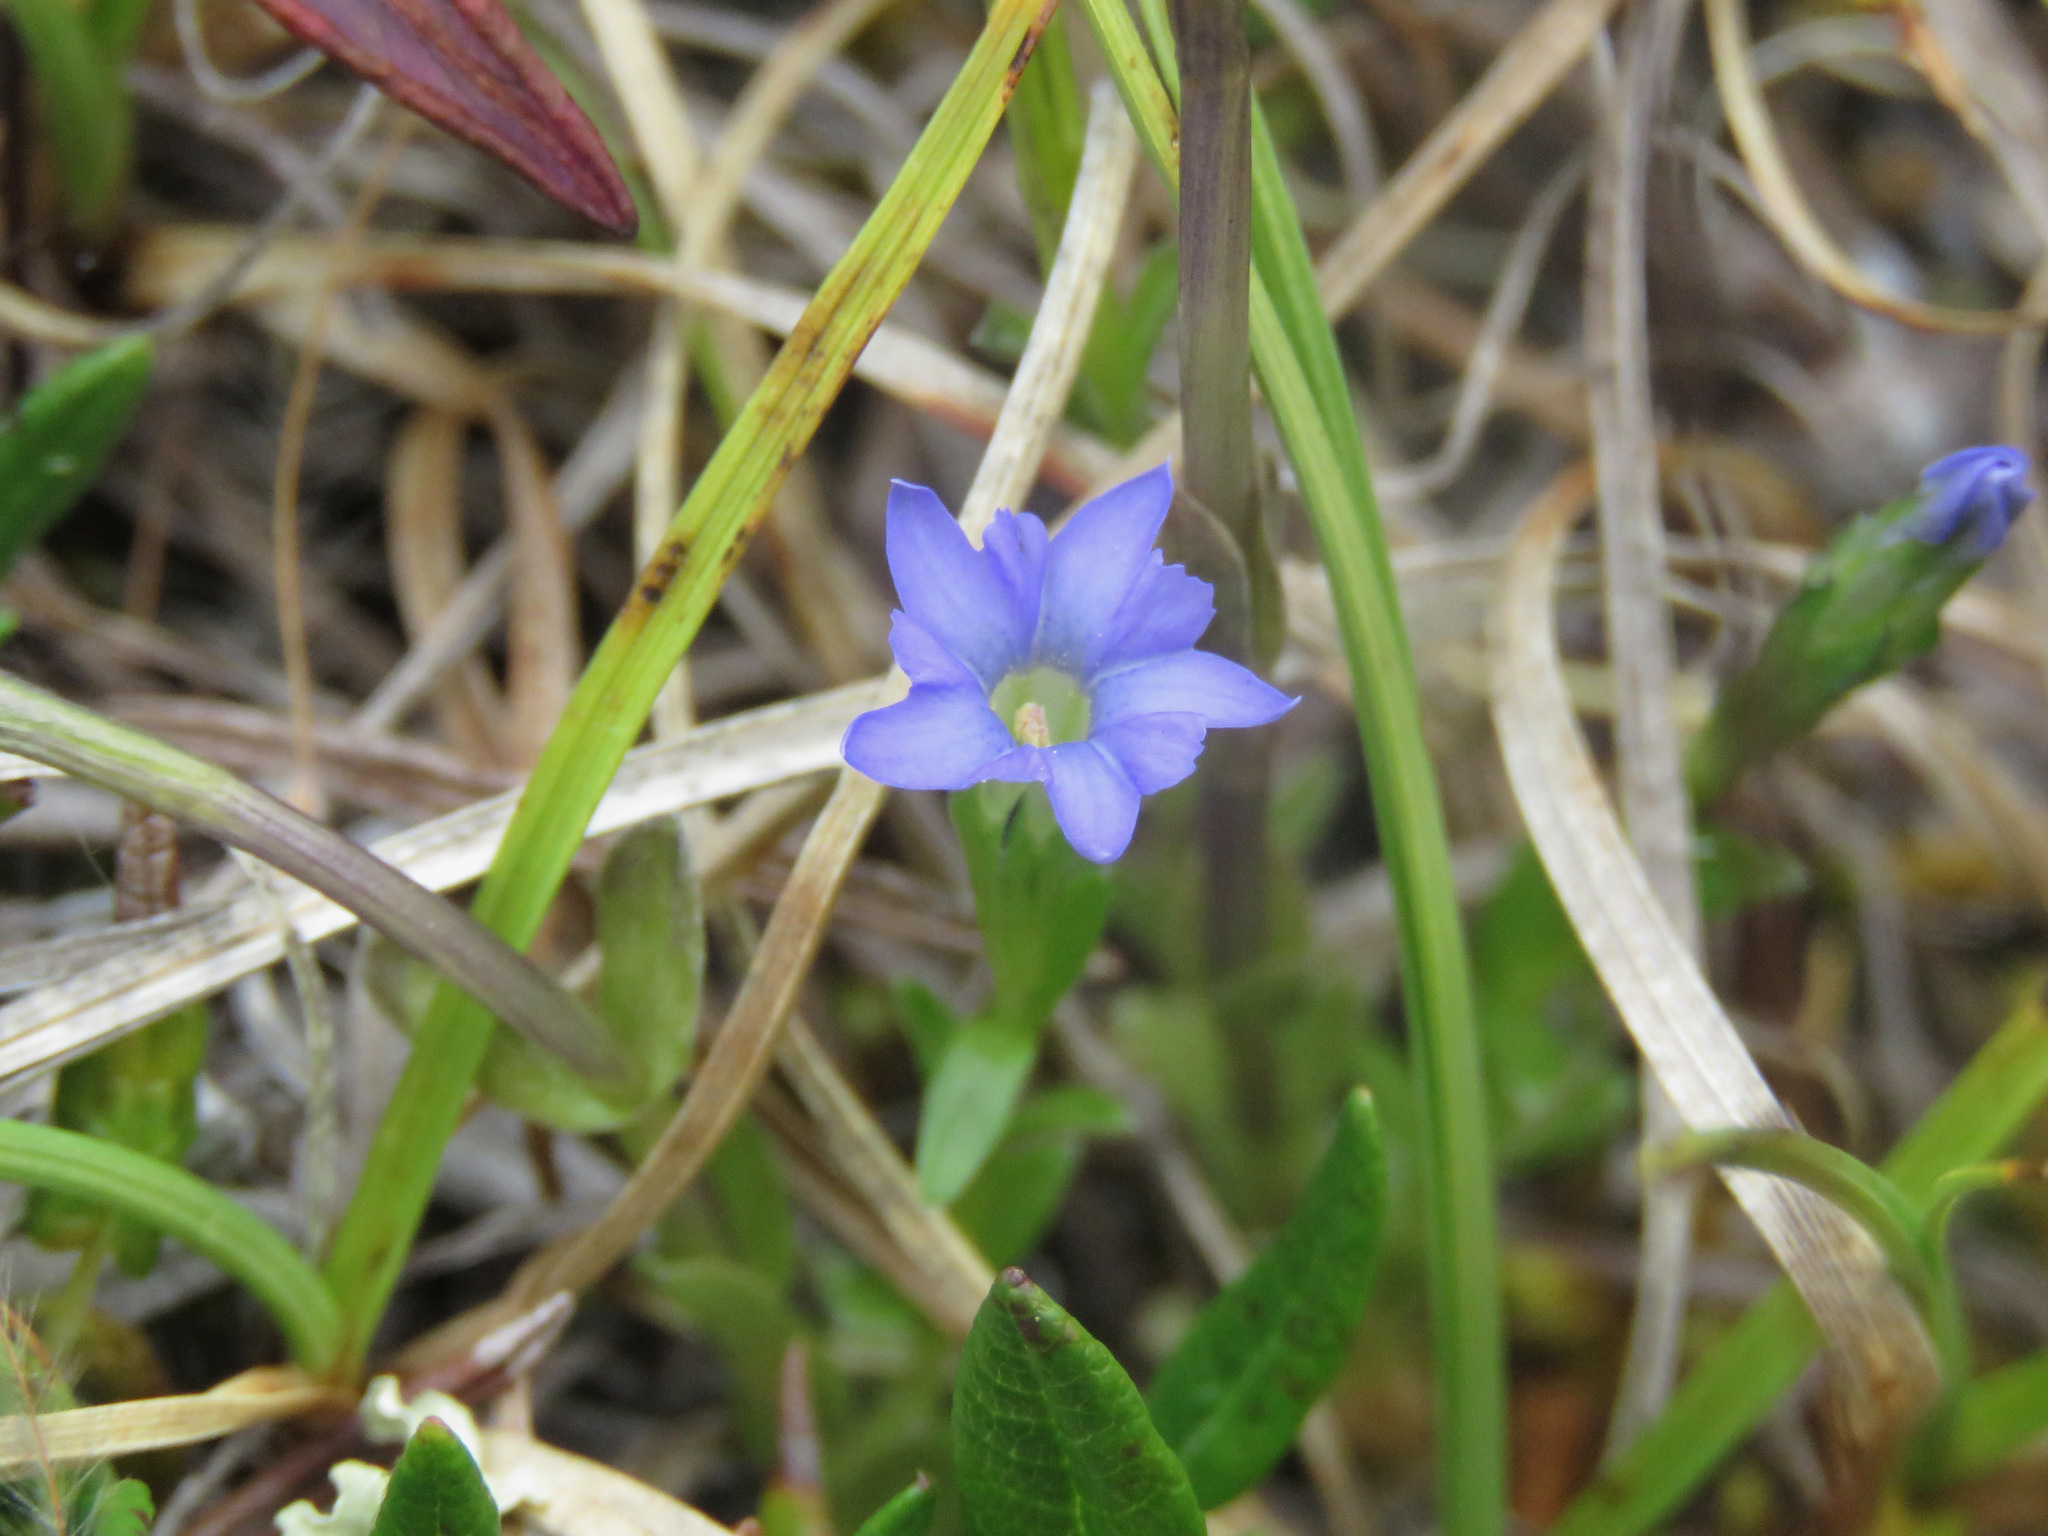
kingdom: Plantae
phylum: Tracheophyta
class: Magnoliopsida
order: Gentianales
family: Gentianaceae
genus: Gentiana
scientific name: Gentiana prostrata
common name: Moss gentian
